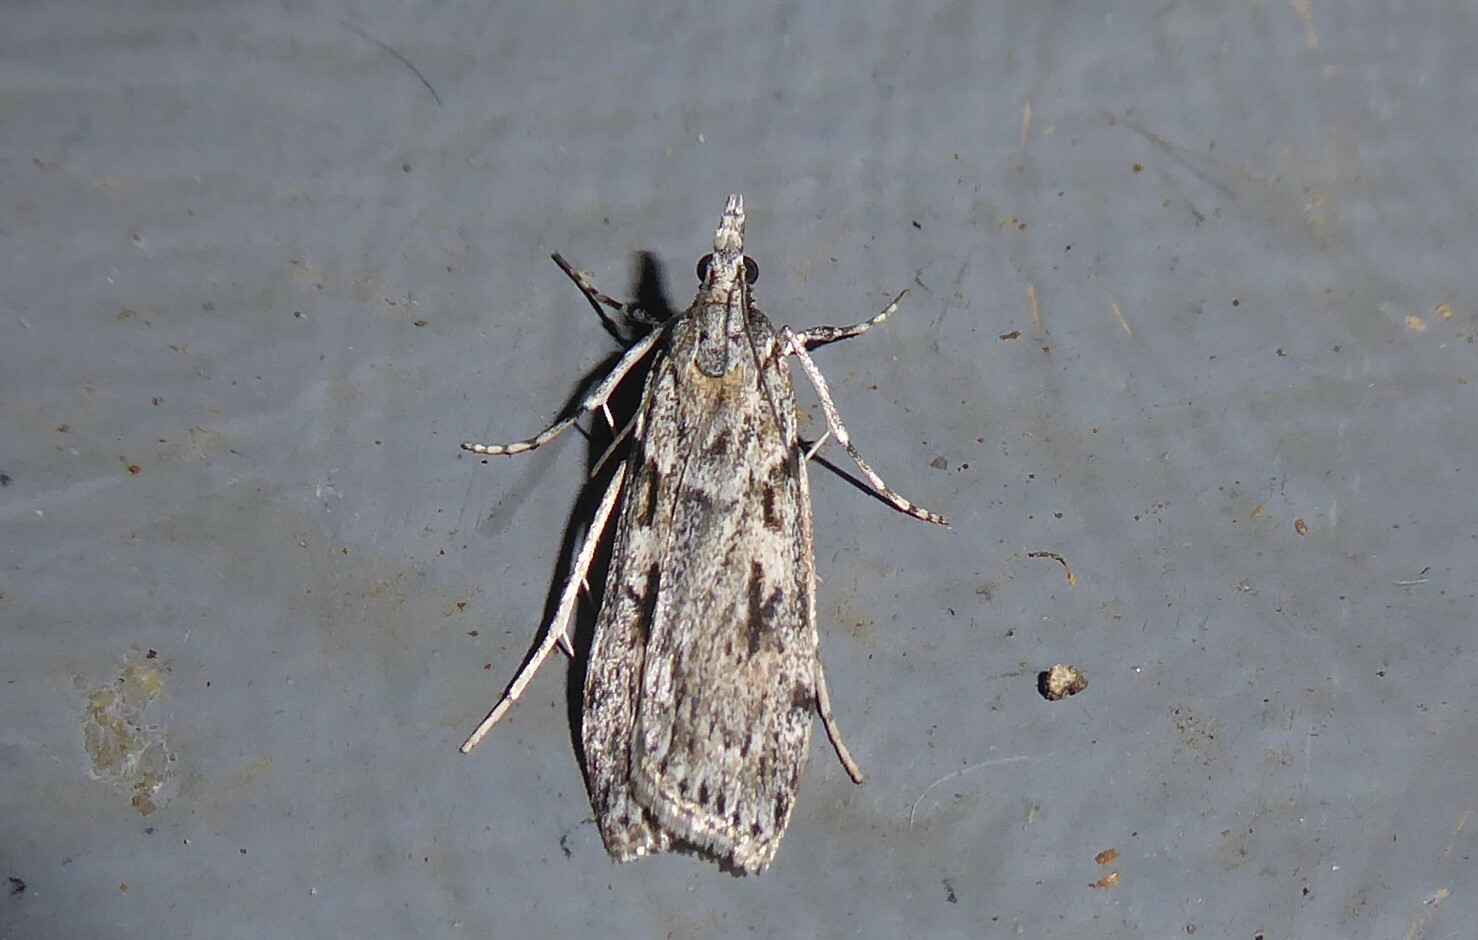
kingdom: Animalia
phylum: Arthropoda
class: Insecta
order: Lepidoptera
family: Crambidae
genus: Scoparia
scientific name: Scoparia halopis
